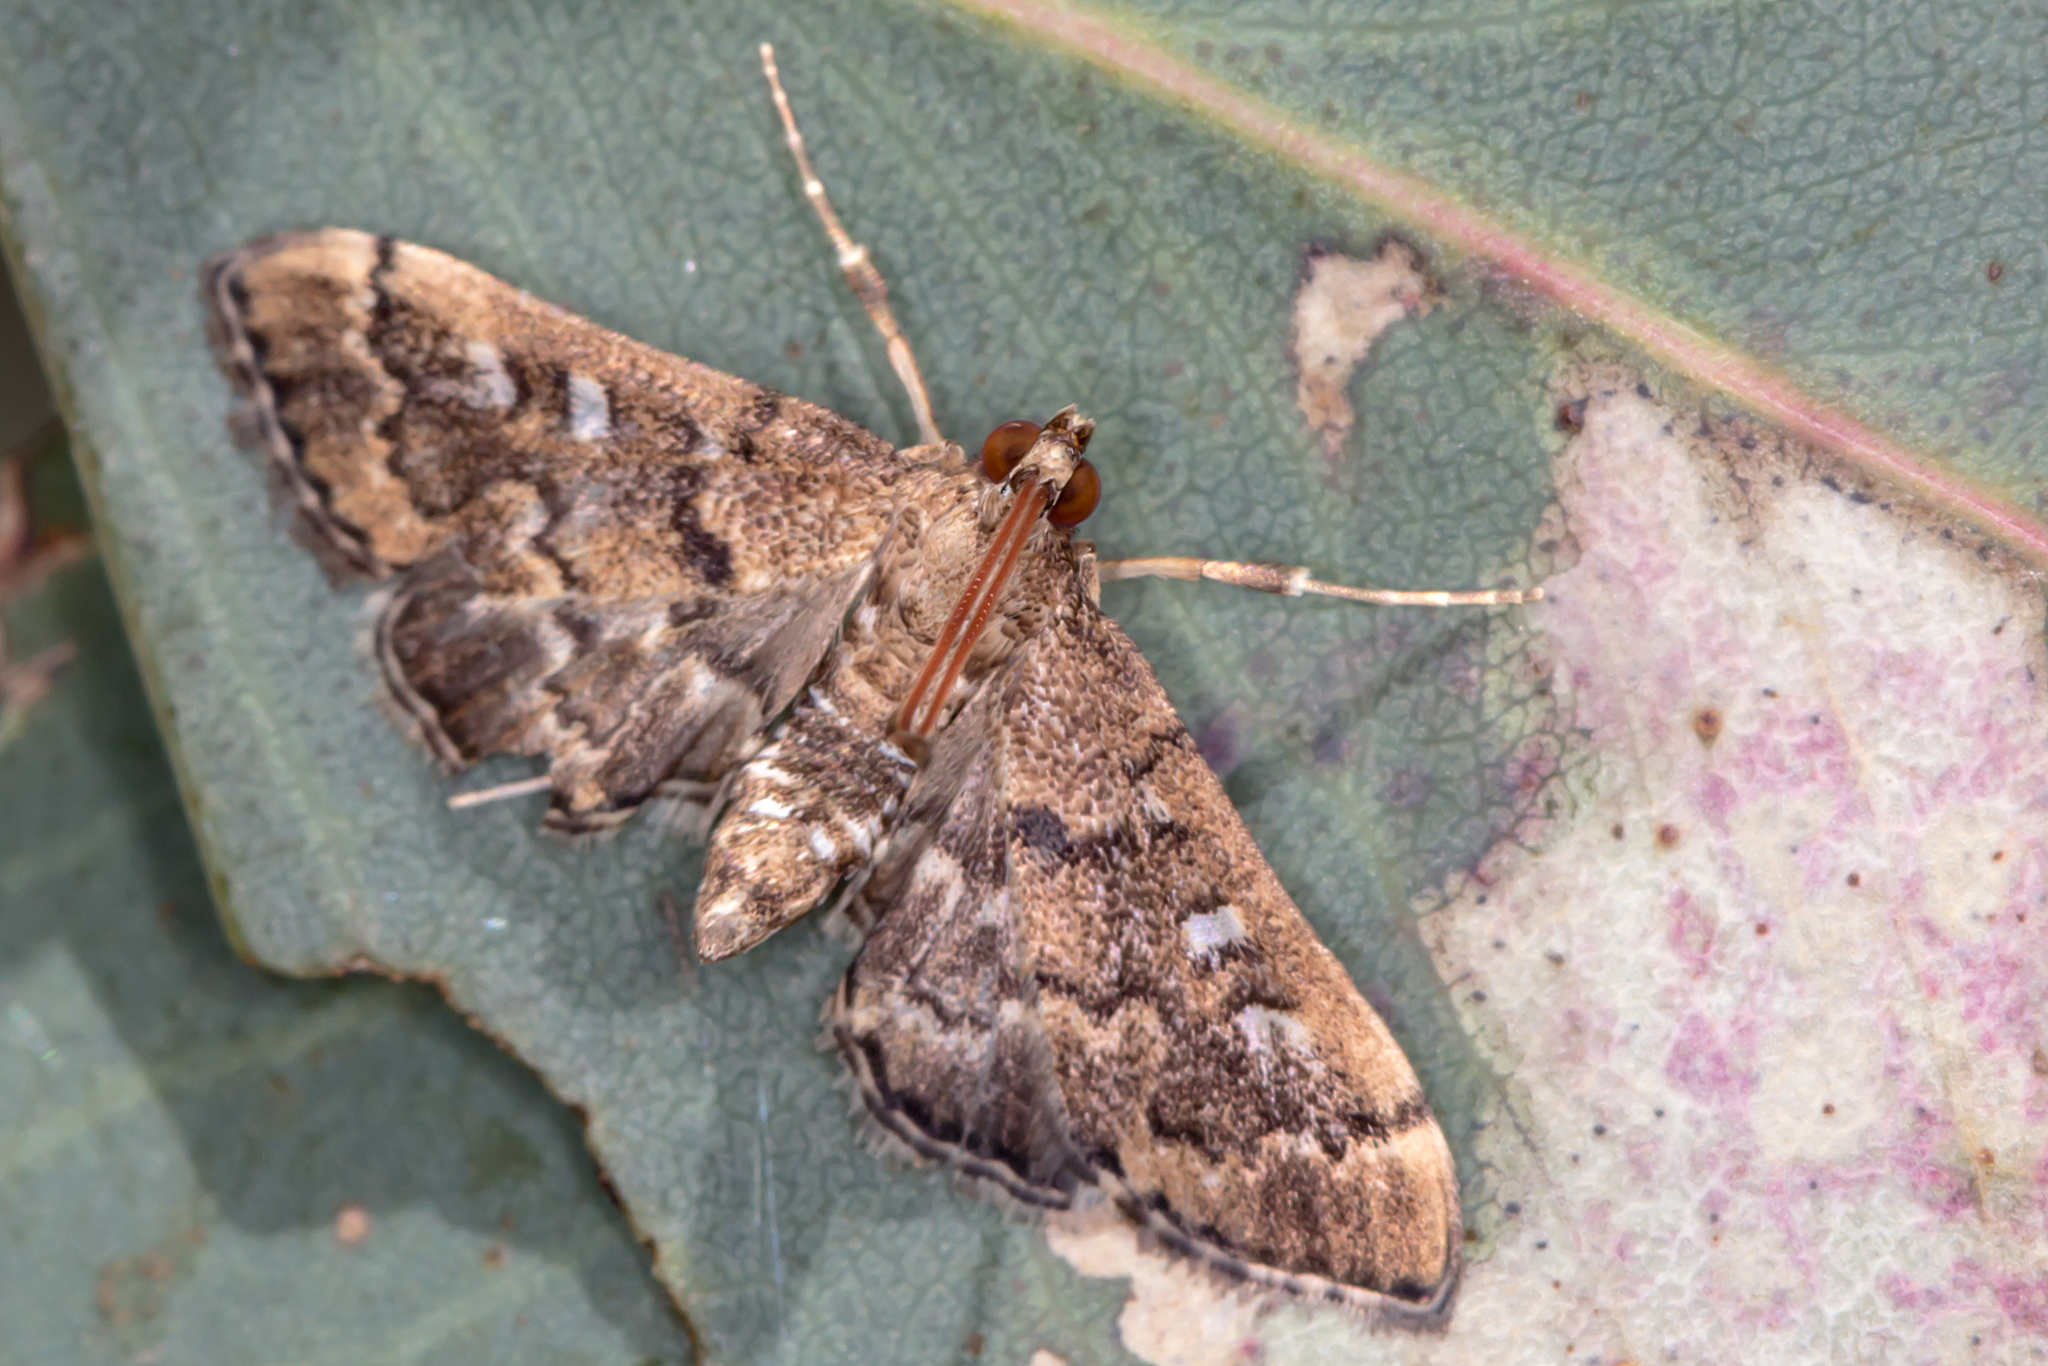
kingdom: Animalia
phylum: Arthropoda
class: Insecta
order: Lepidoptera
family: Crambidae
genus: Nacoleia
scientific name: Nacoleia rhoeoalis
